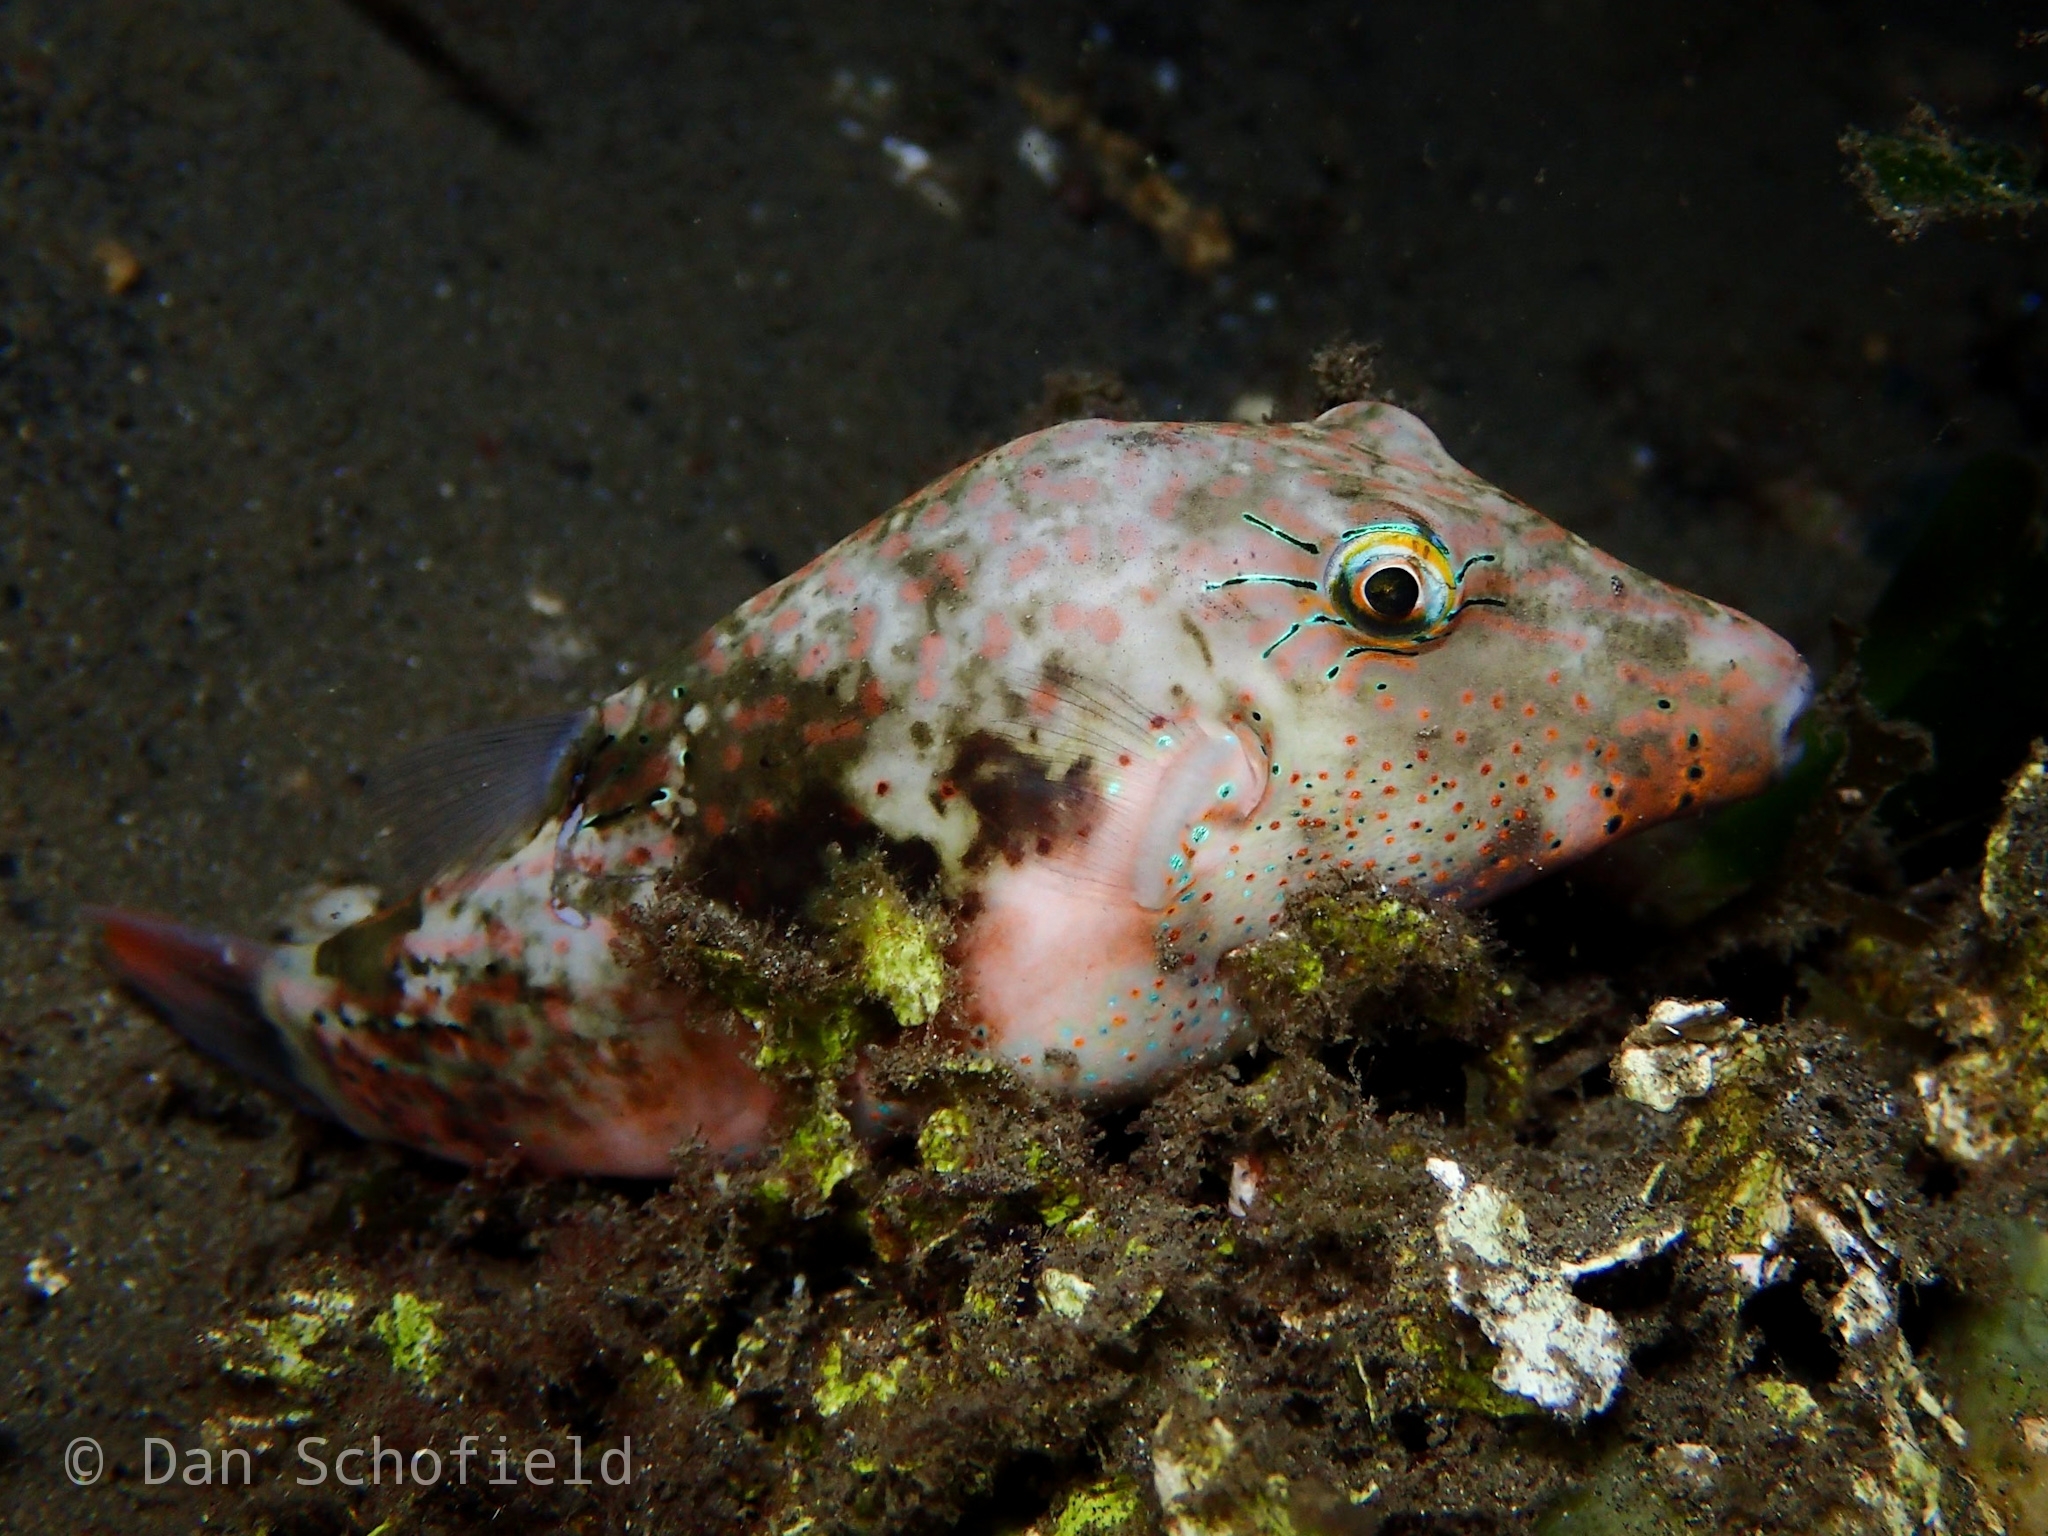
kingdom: Animalia
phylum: Chordata
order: Tetraodontiformes
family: Tetraodontidae
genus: Canthigaster
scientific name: Canthigaster bennetti
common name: Bennett's pufferfish
